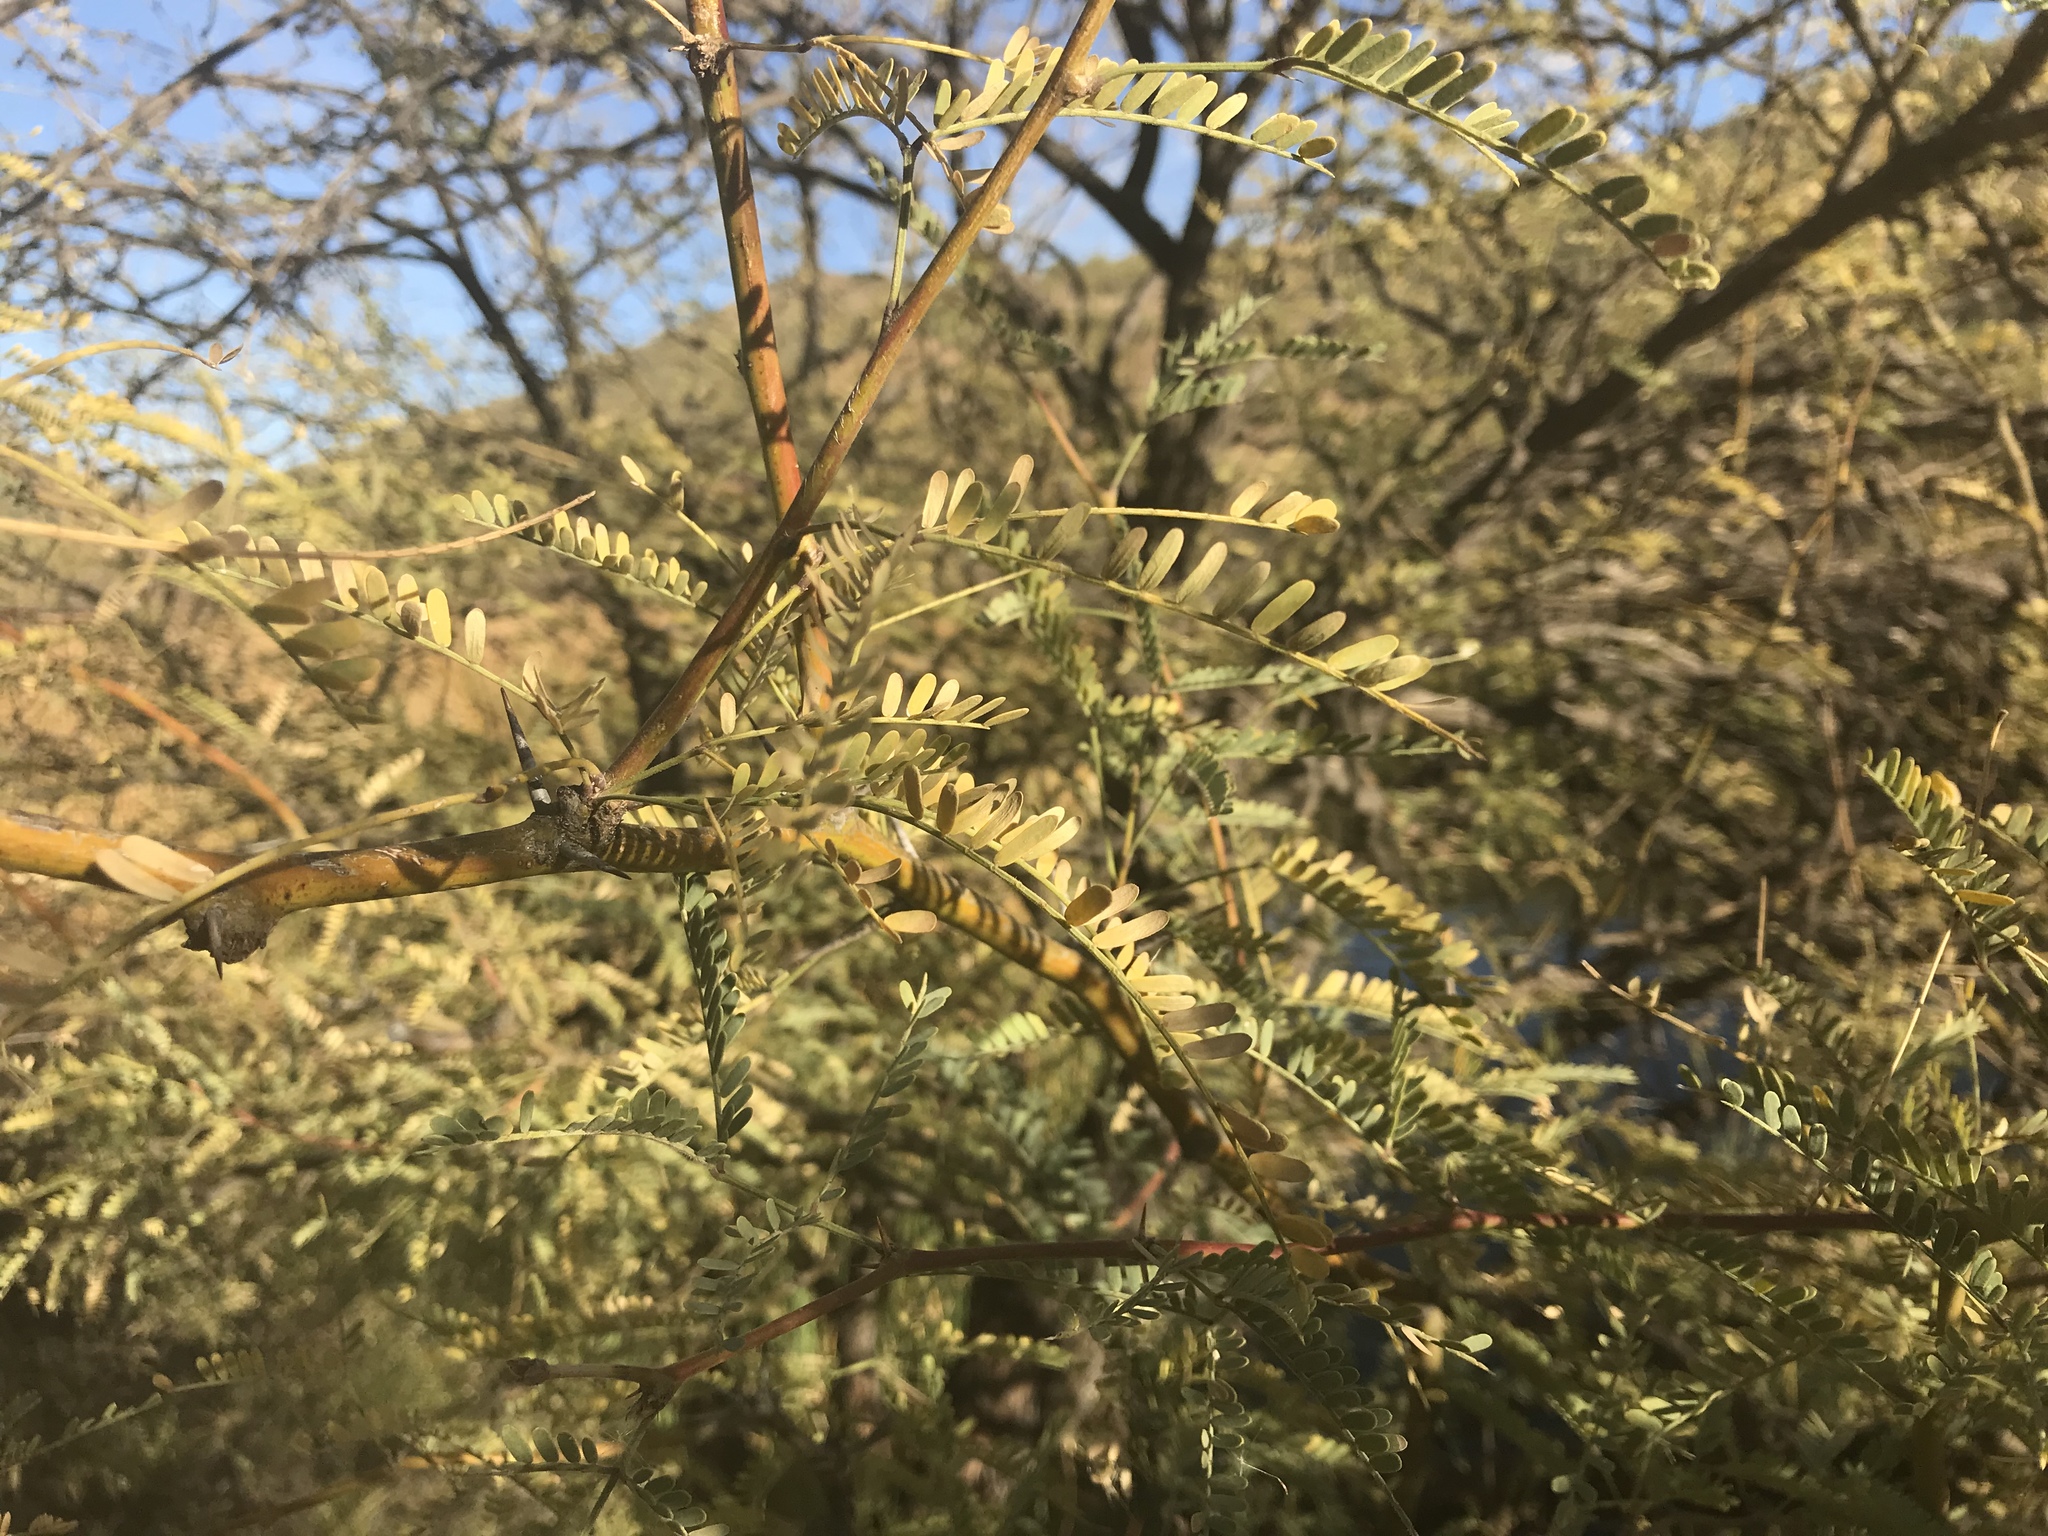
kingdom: Plantae
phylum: Tracheophyta
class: Magnoliopsida
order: Fabales
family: Fabaceae
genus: Prosopis
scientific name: Prosopis velutina
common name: Velvet mesquite
